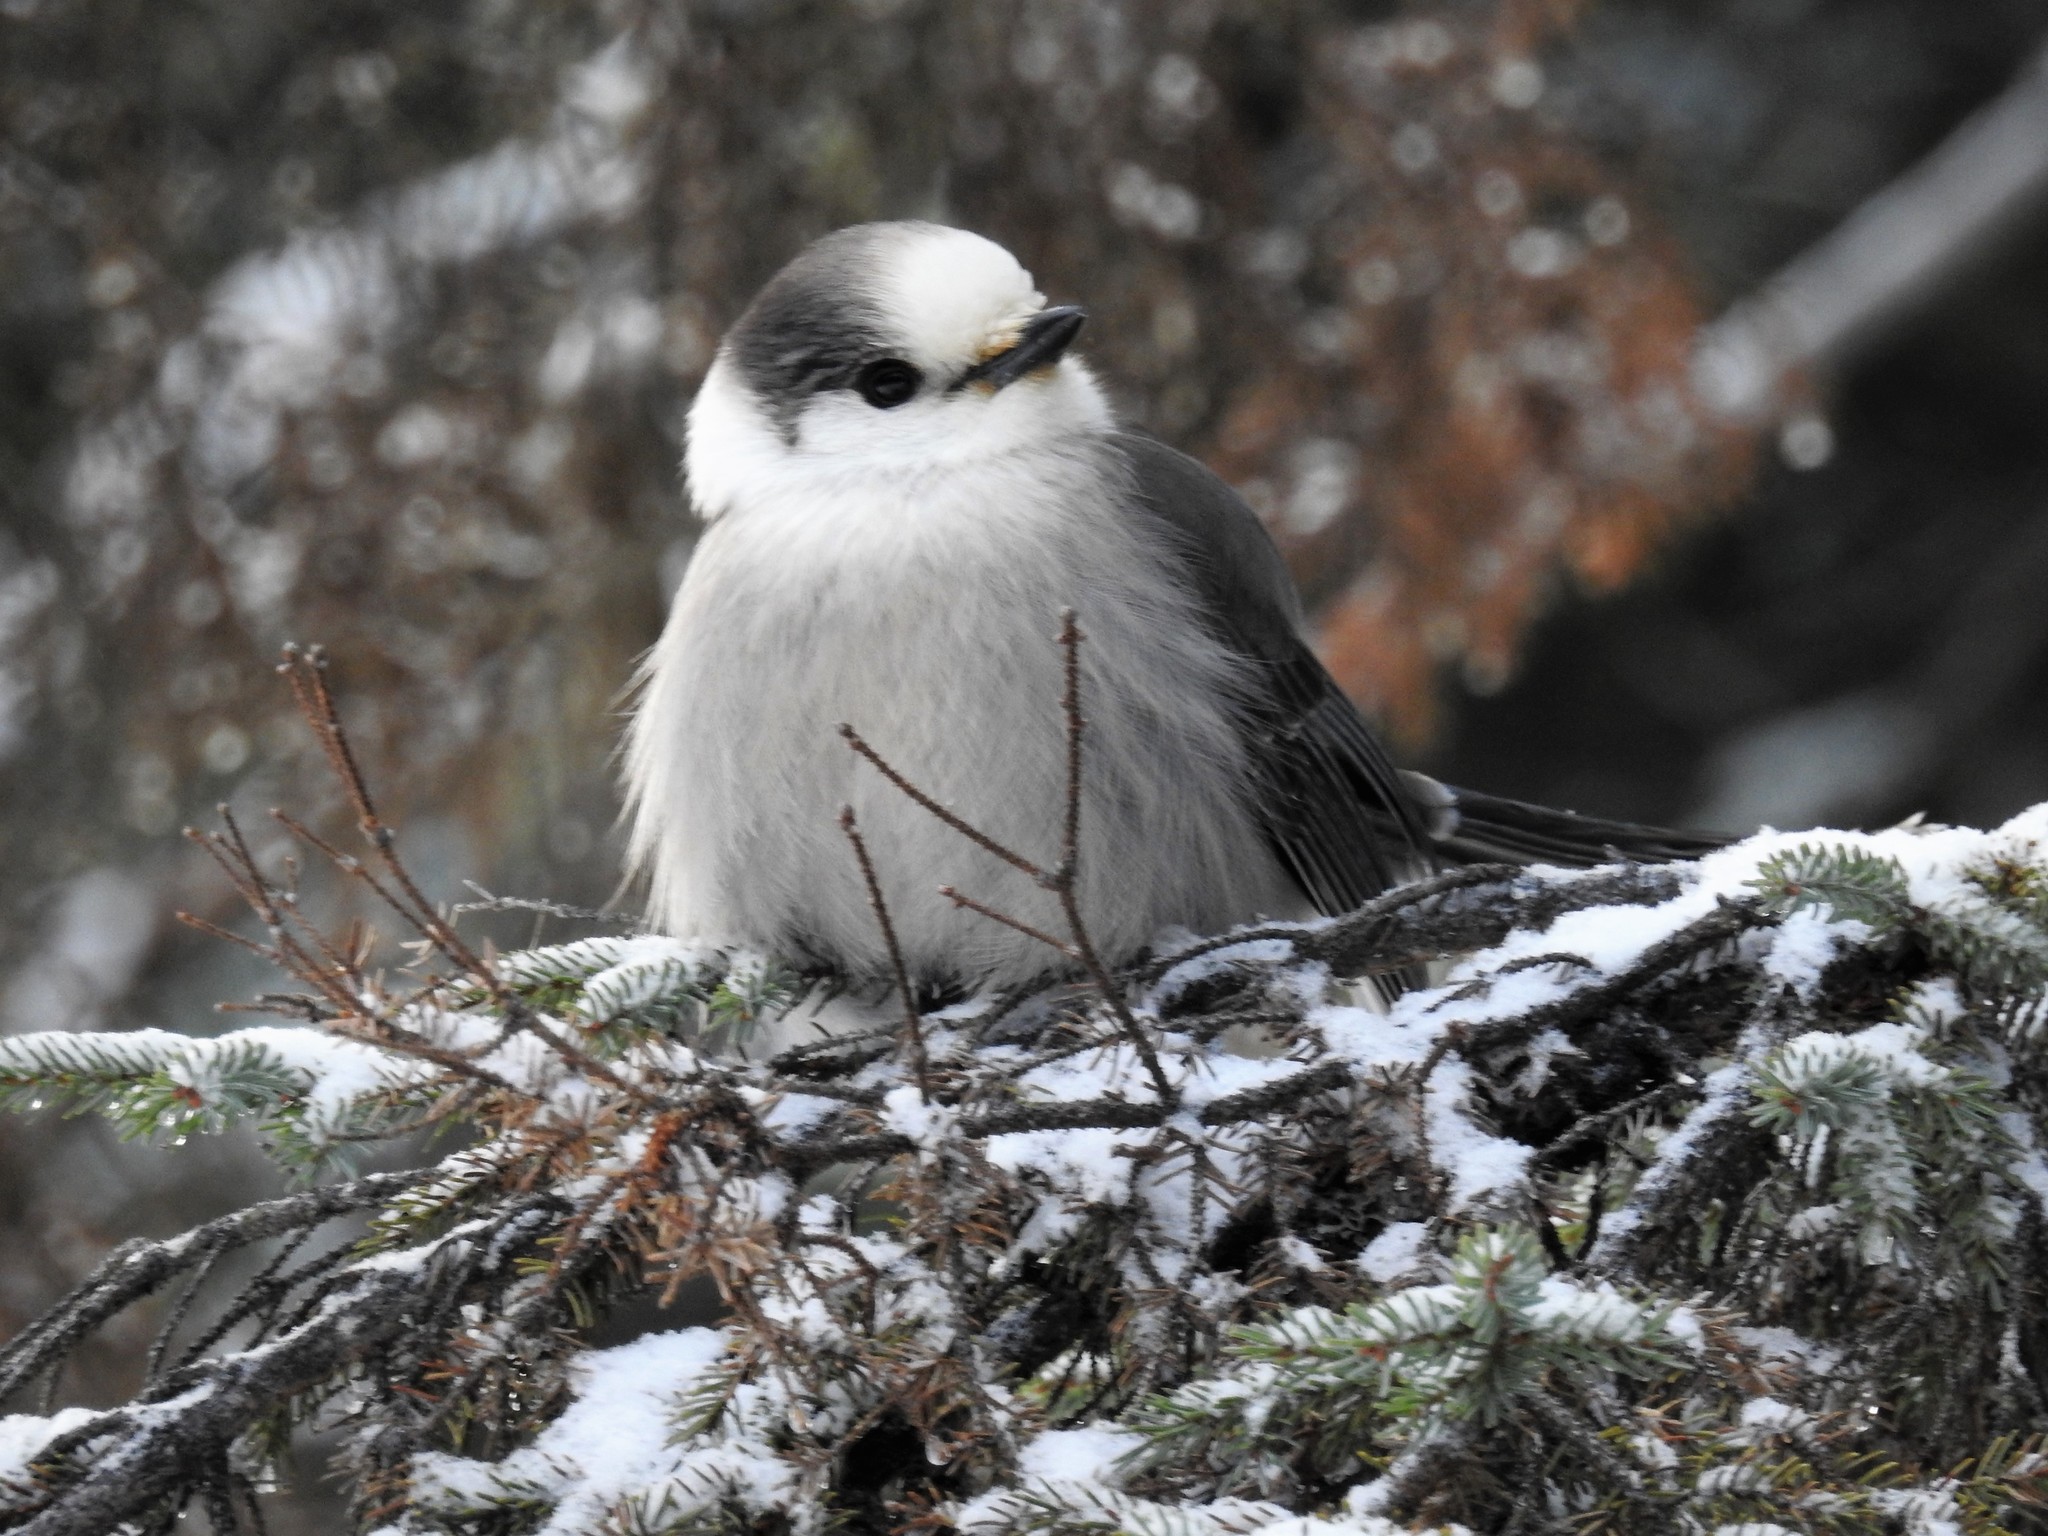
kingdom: Animalia
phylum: Chordata
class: Aves
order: Passeriformes
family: Corvidae
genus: Perisoreus
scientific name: Perisoreus canadensis
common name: Gray jay
